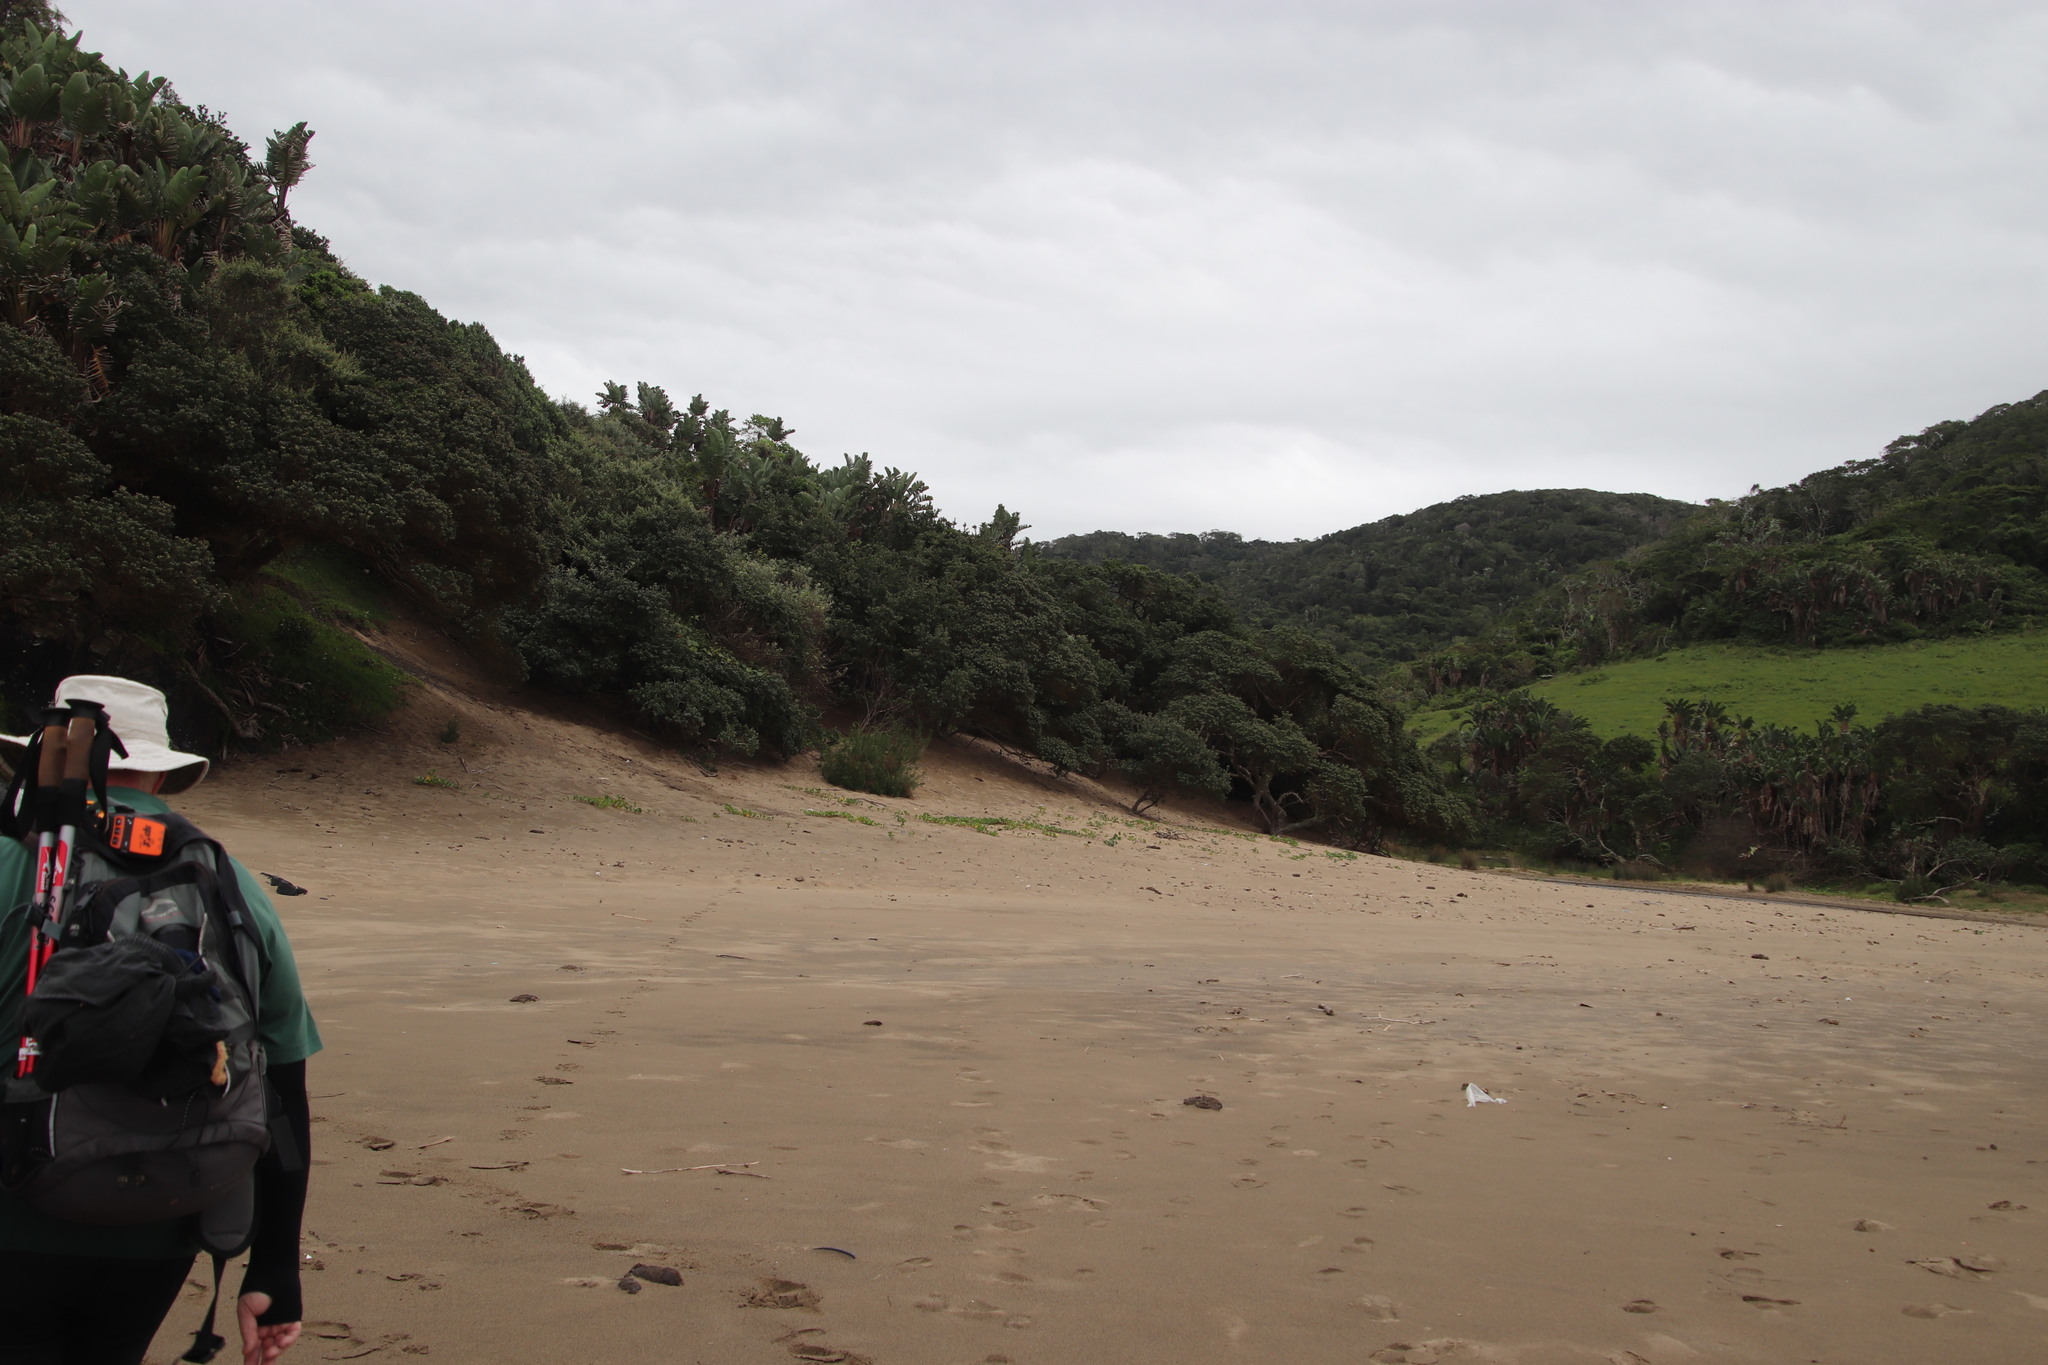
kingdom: Plantae
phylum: Tracheophyta
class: Liliopsida
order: Zingiberales
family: Strelitziaceae
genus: Strelitzia
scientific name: Strelitzia nicolai
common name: Bird-of-paradise tree
